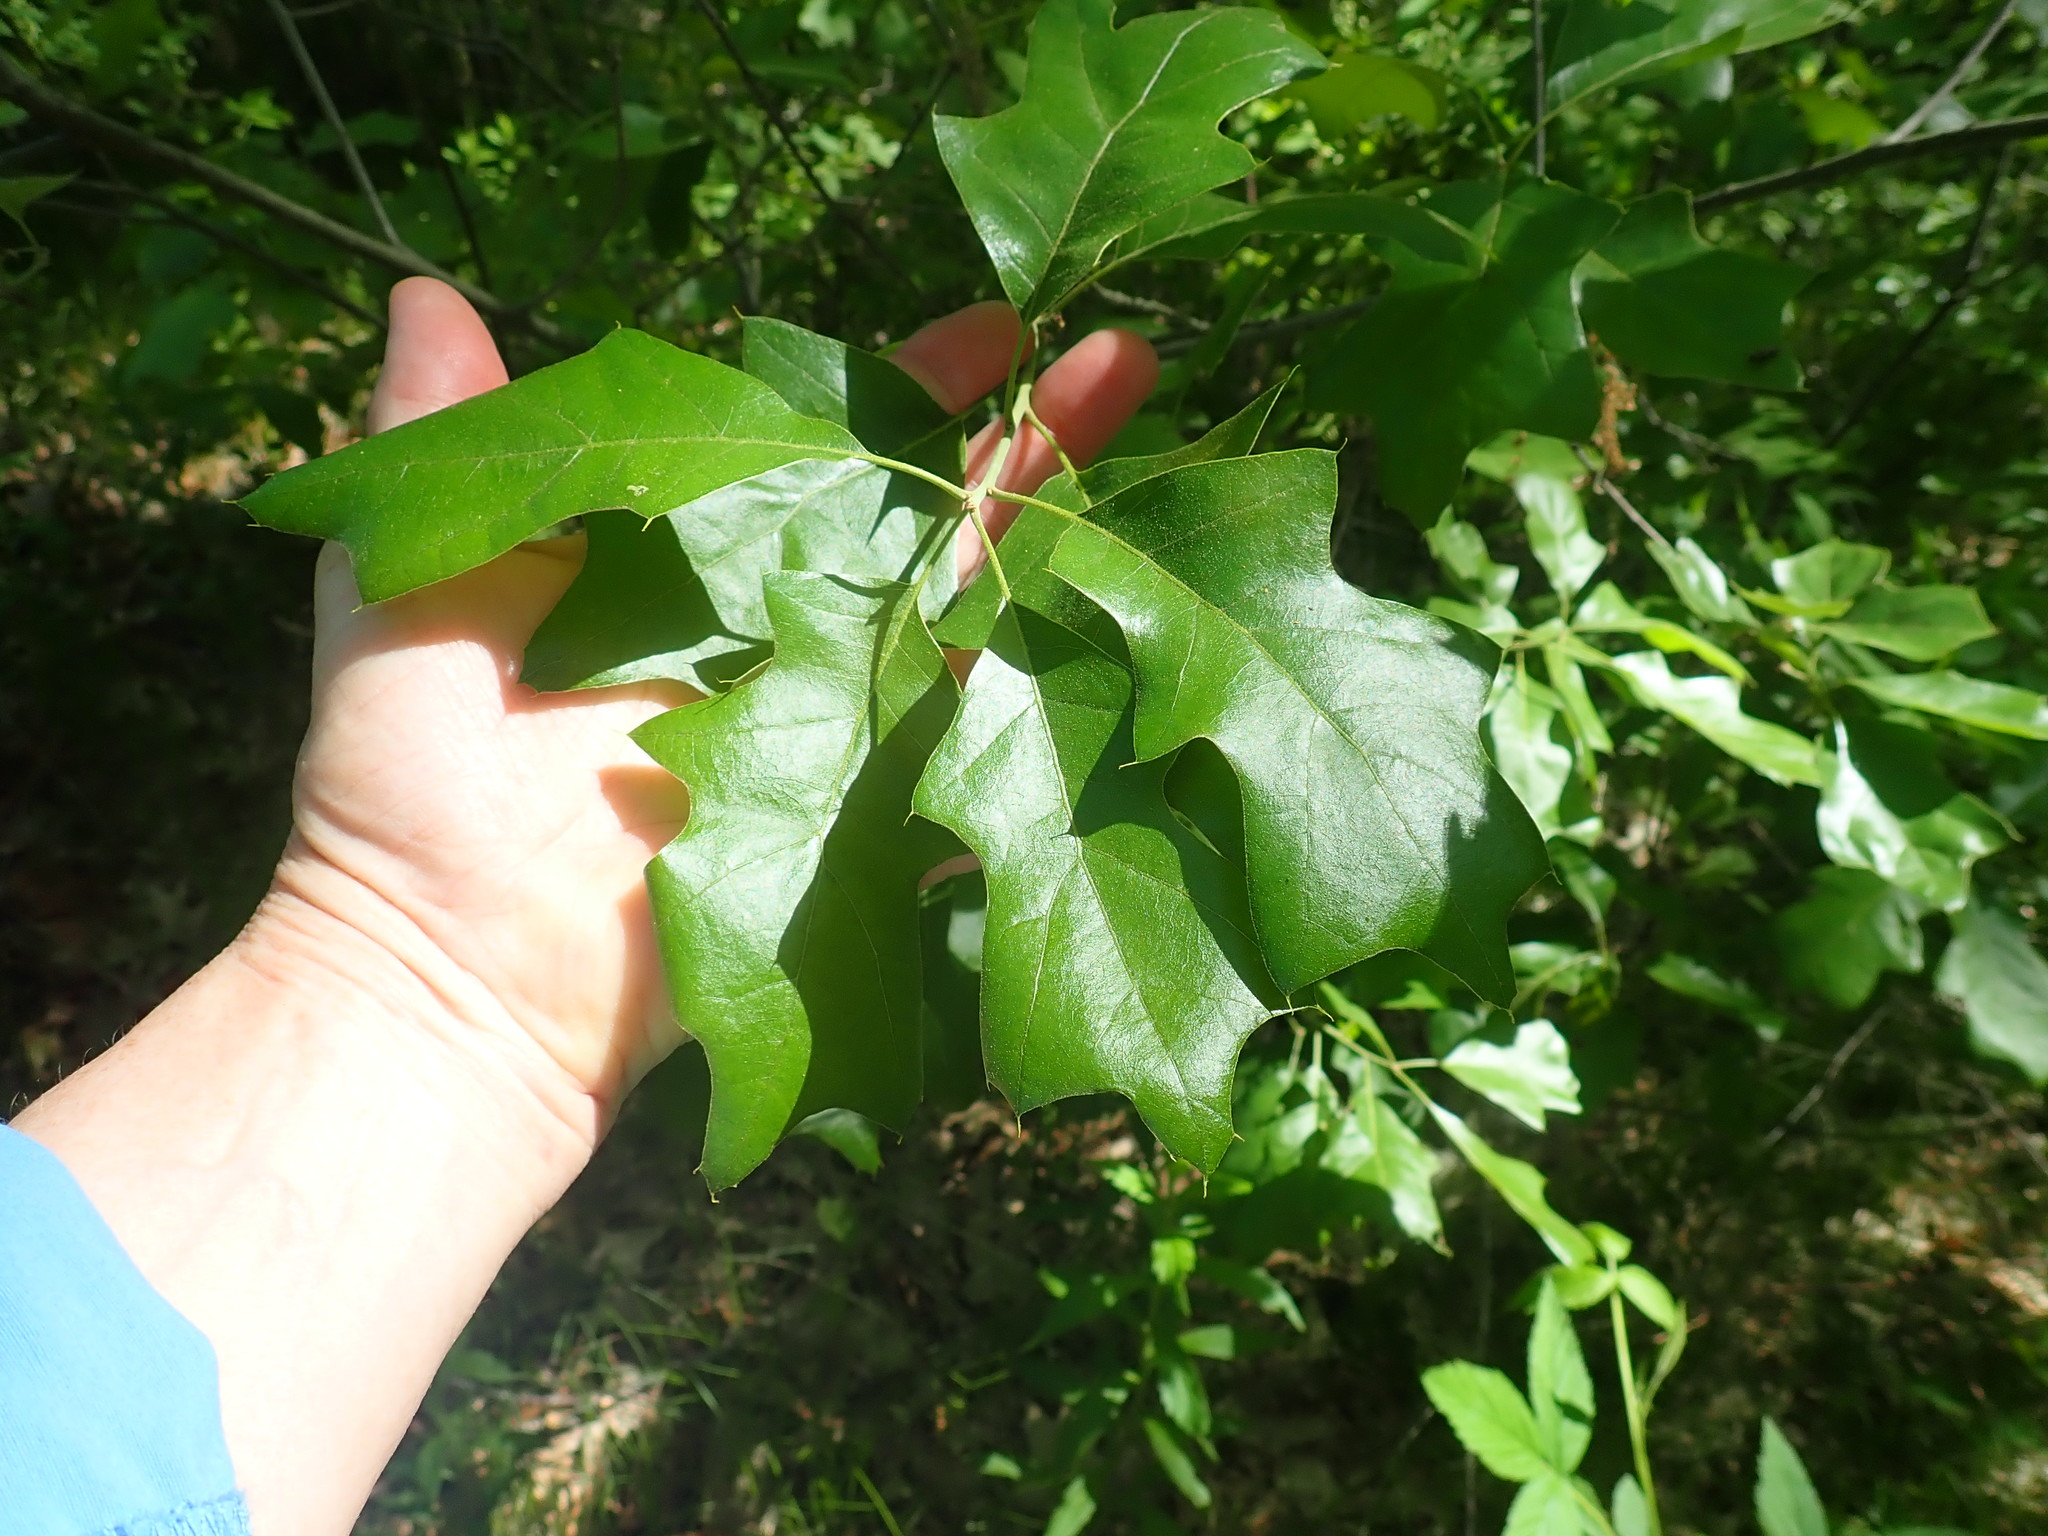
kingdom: Plantae
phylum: Tracheophyta
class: Magnoliopsida
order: Fagales
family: Fagaceae
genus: Quercus
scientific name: Quercus ilicifolia
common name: Bear oak
